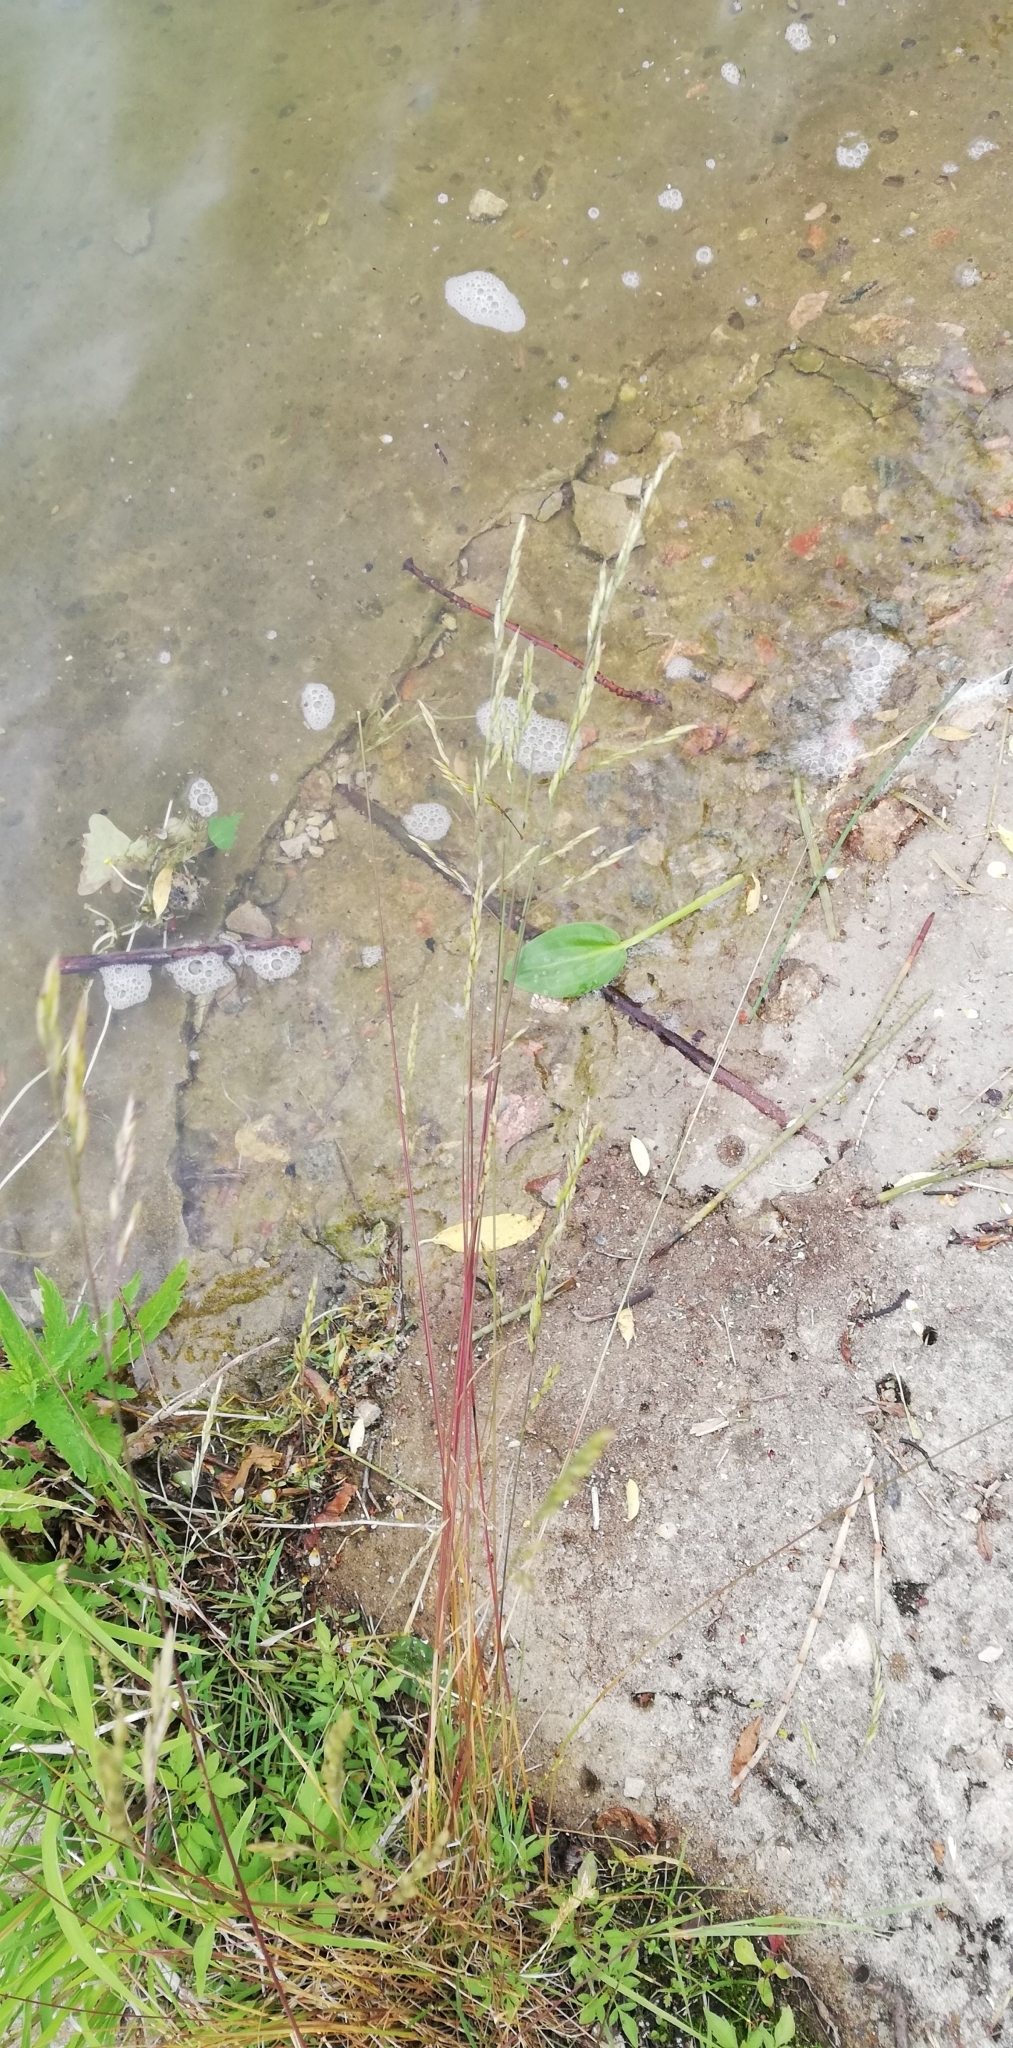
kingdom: Plantae
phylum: Tracheophyta
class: Liliopsida
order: Poales
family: Poaceae
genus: Lolium
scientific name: Lolium pratense
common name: Dover grass
